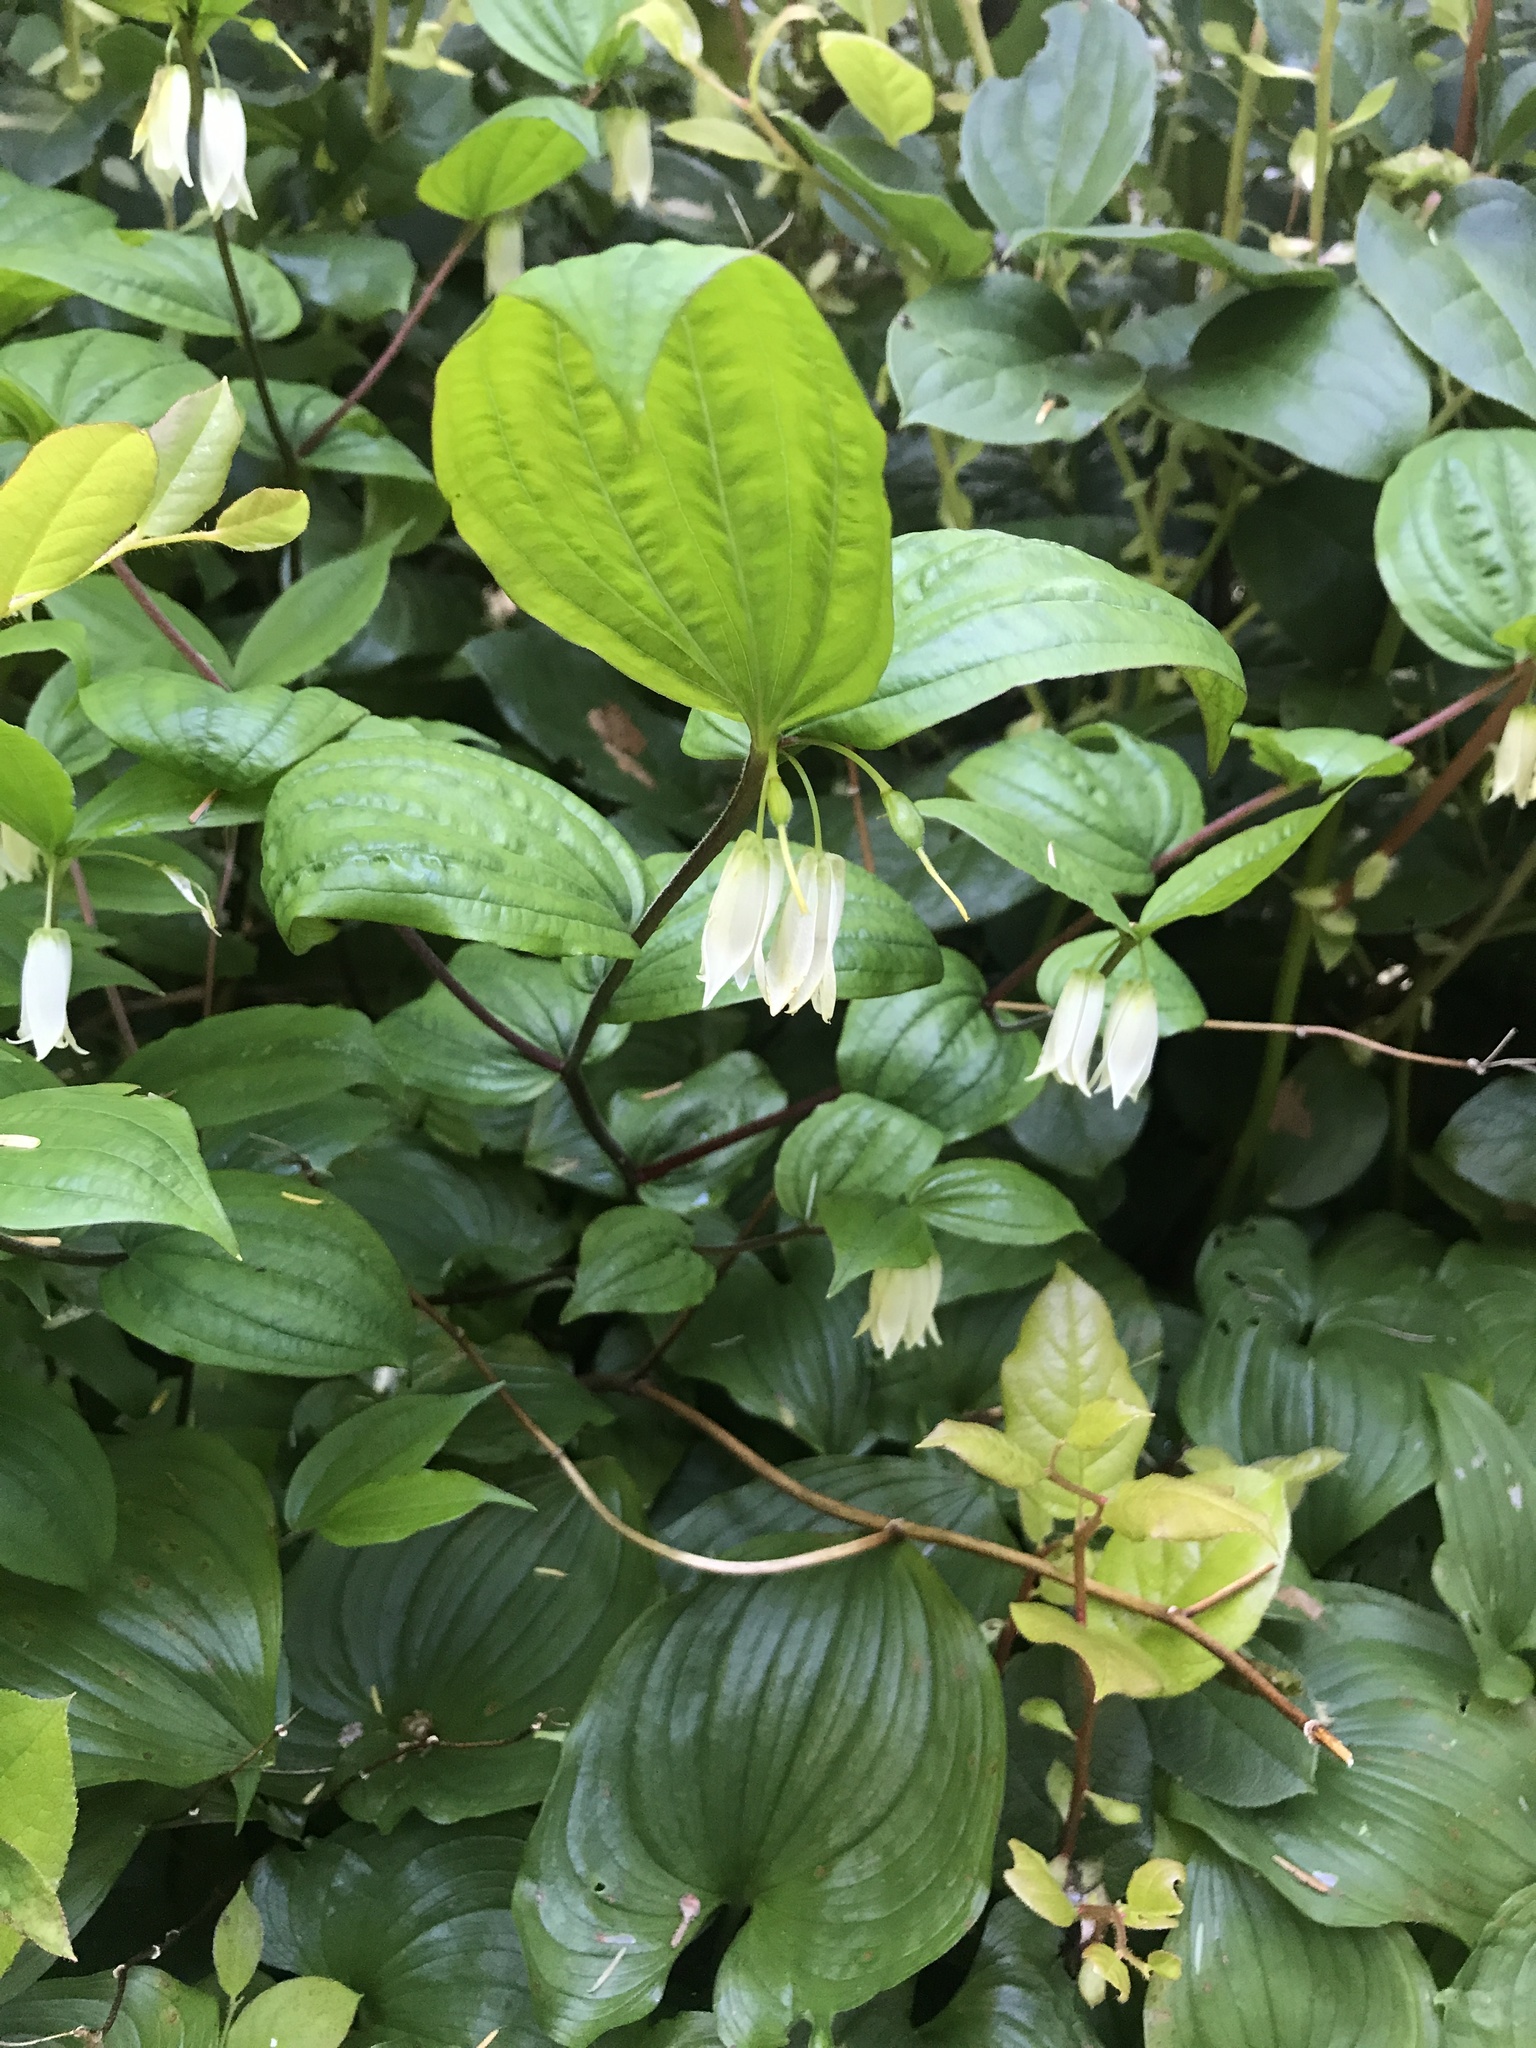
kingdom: Plantae
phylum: Tracheophyta
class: Liliopsida
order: Liliales
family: Liliaceae
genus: Prosartes
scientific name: Prosartes smithii
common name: Fairy-lantern
